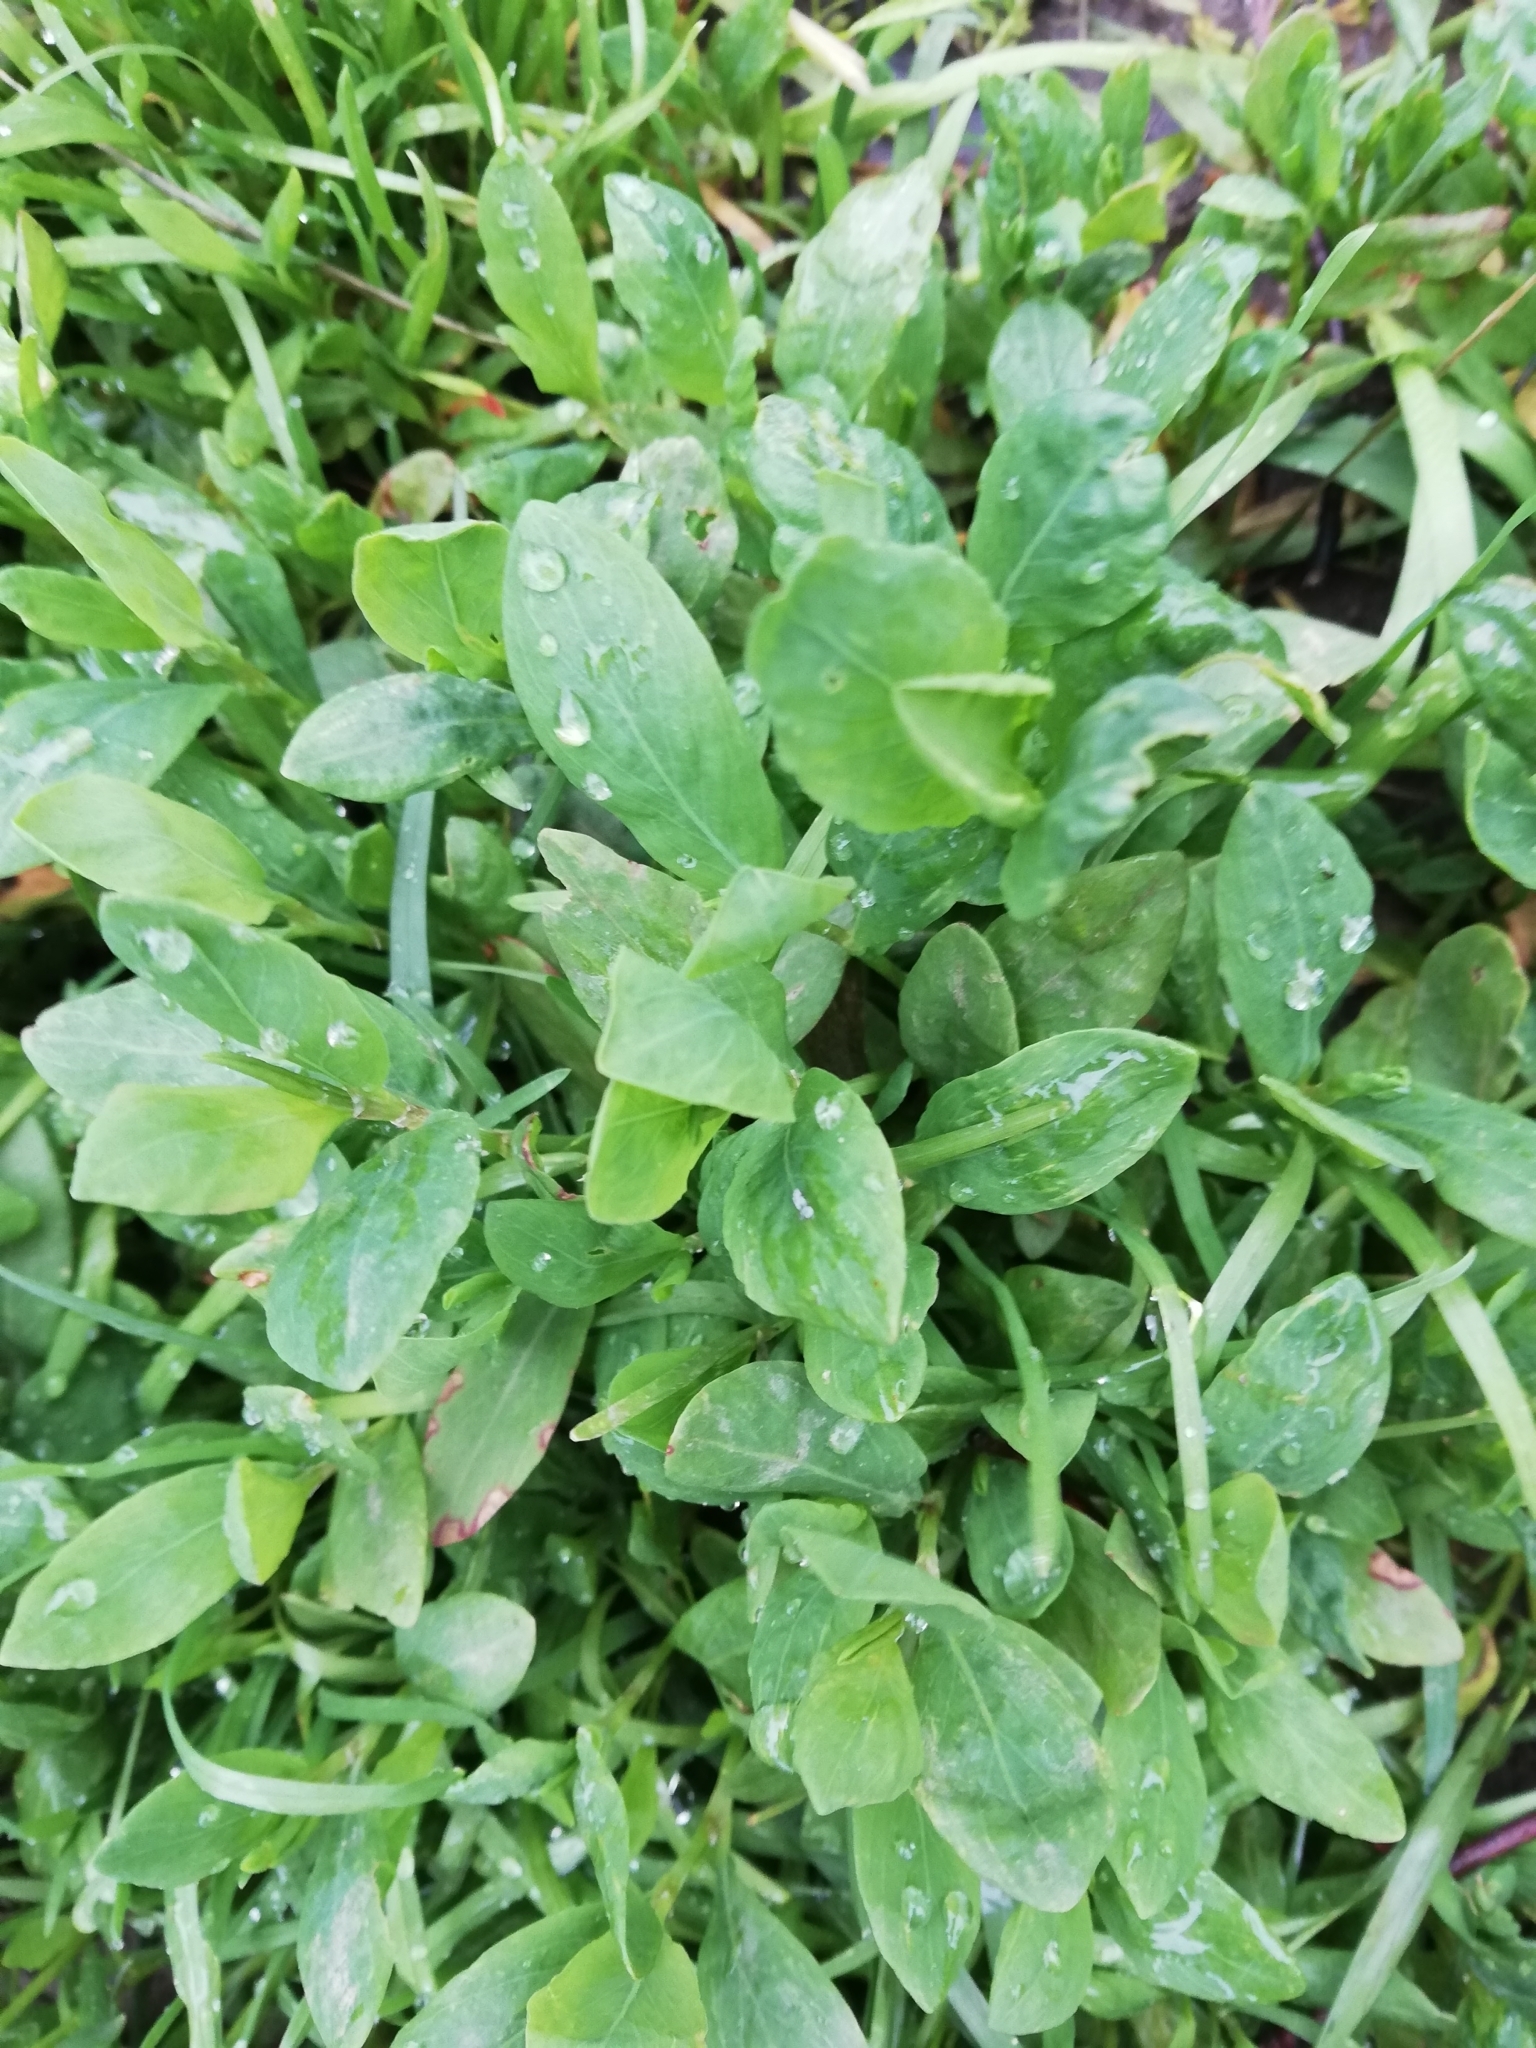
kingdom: Plantae
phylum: Tracheophyta
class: Magnoliopsida
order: Caryophyllales
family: Polygonaceae
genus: Polygonum
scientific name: Polygonum aviculare
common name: Prostrate knotweed
